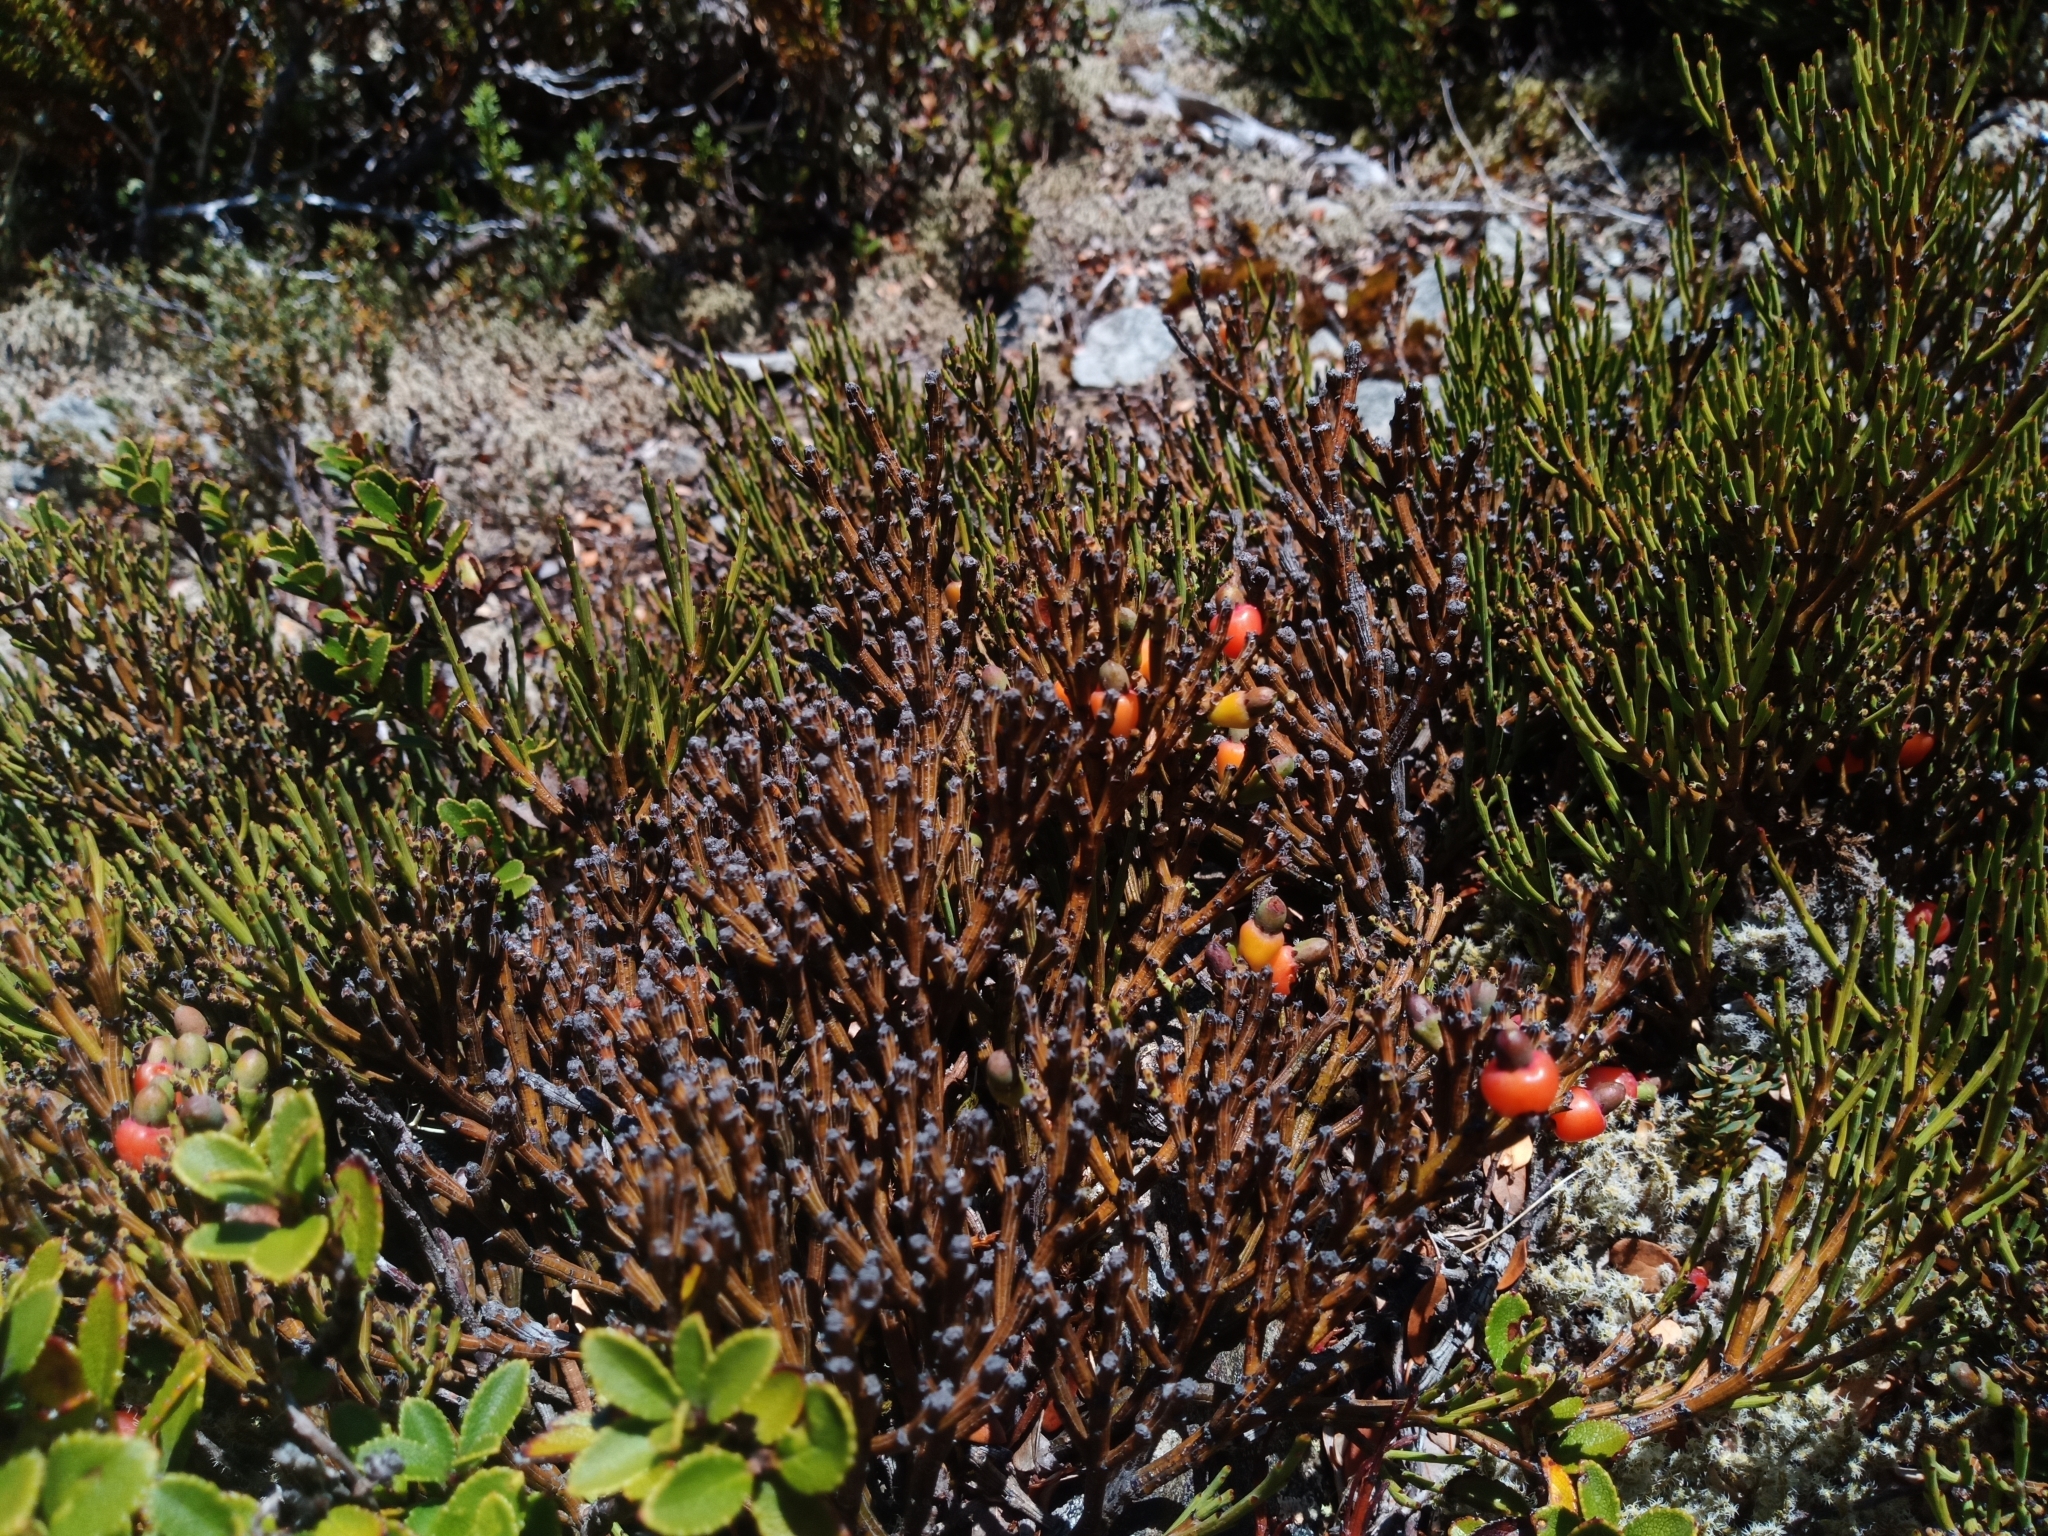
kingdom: Plantae
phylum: Tracheophyta
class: Magnoliopsida
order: Santalales
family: Santalaceae
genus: Exocarpos
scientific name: Exocarpos bidwillii
